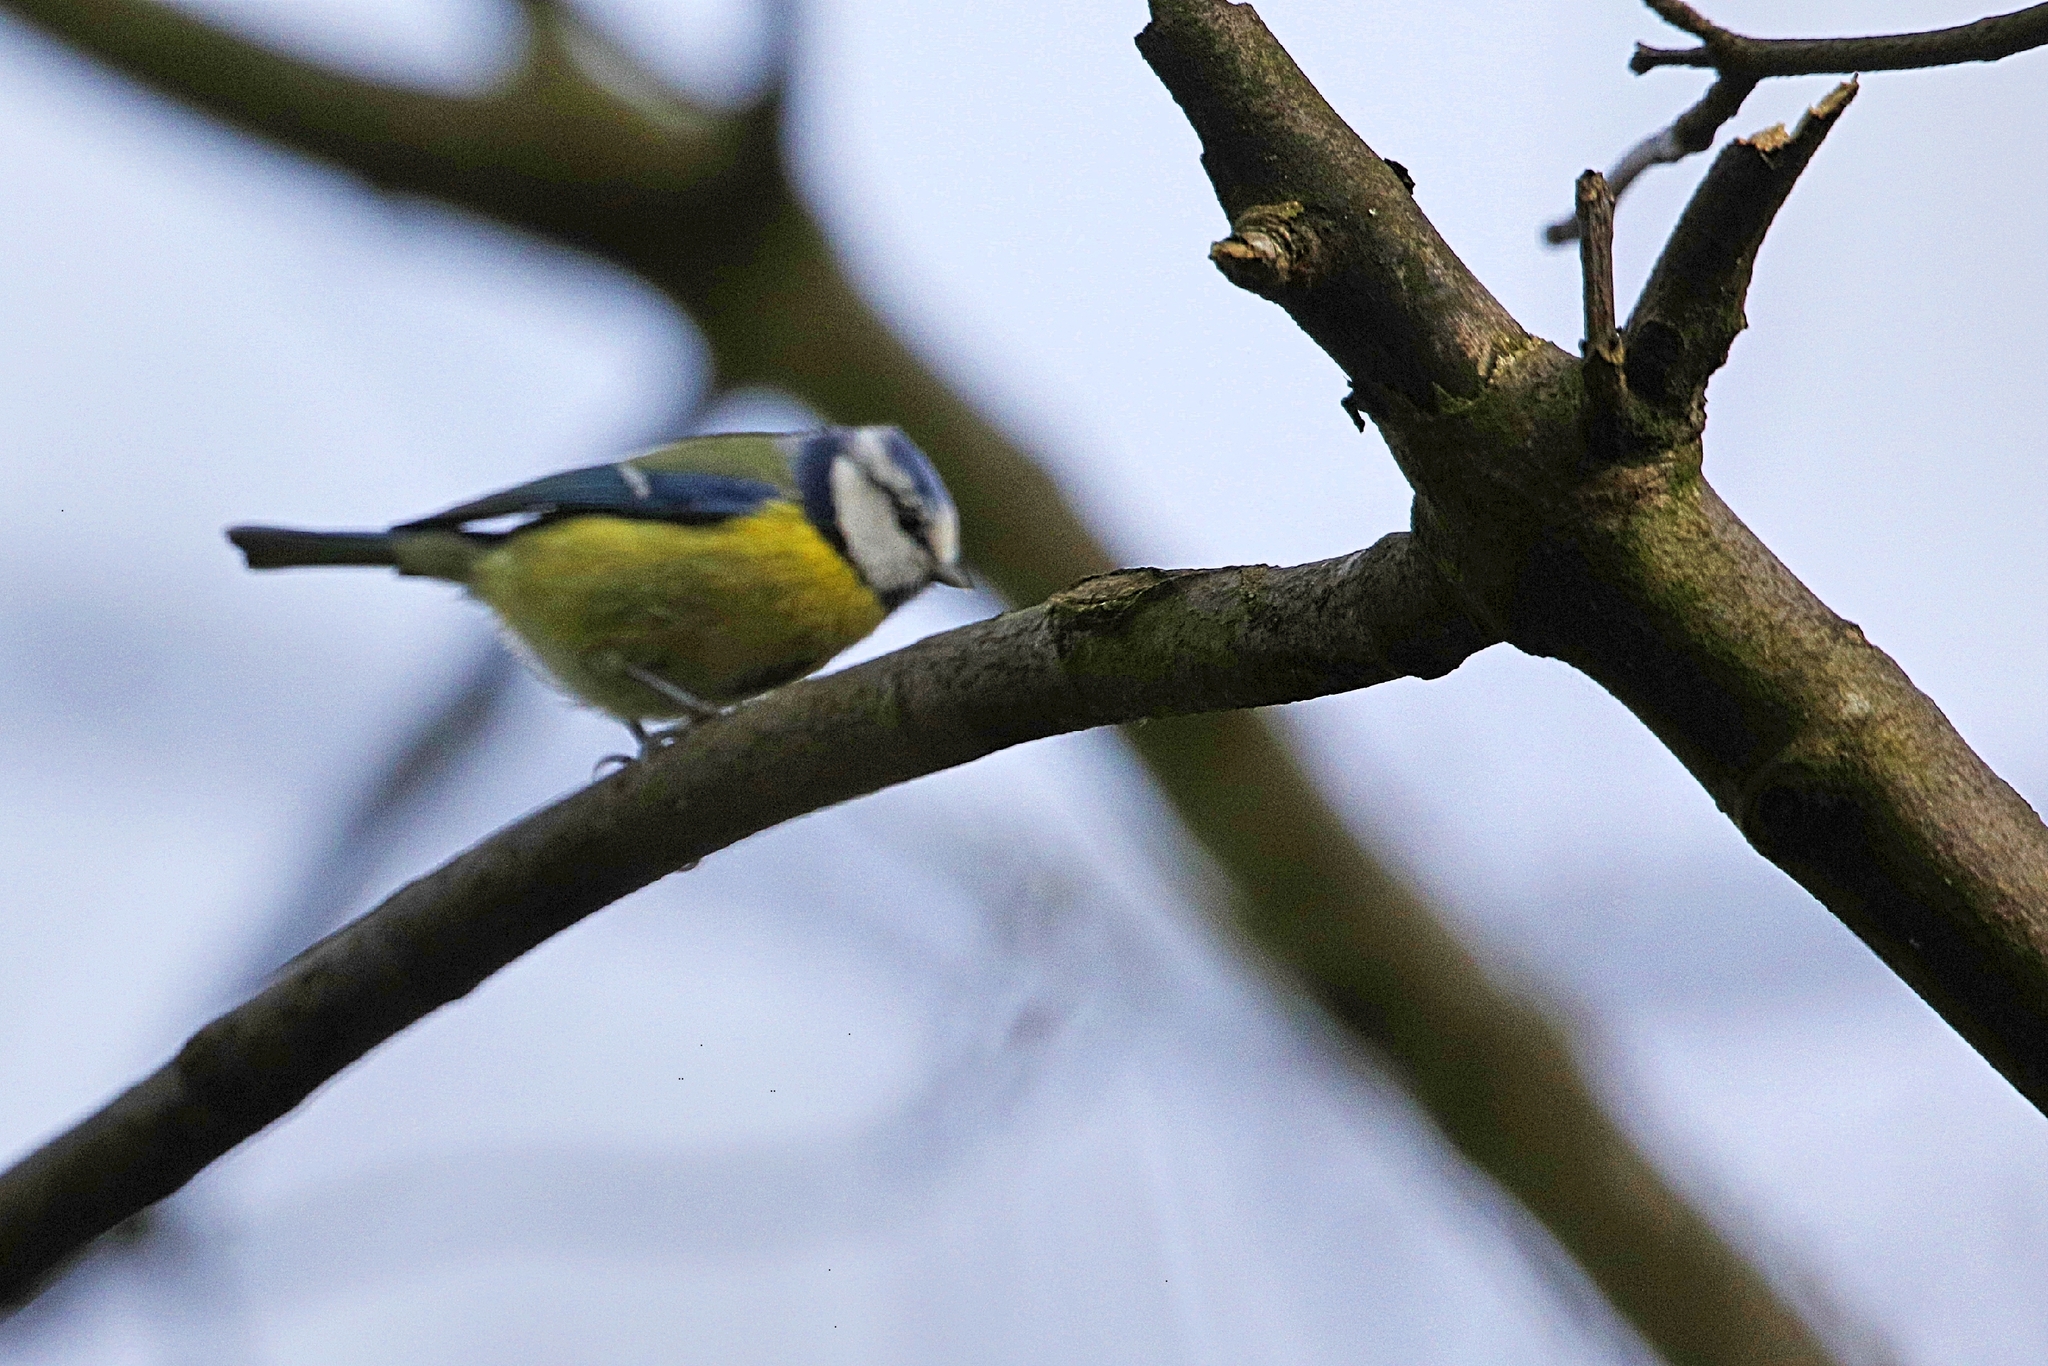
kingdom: Animalia
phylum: Chordata
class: Aves
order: Passeriformes
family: Paridae
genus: Cyanistes
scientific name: Cyanistes caeruleus
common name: Eurasian blue tit
